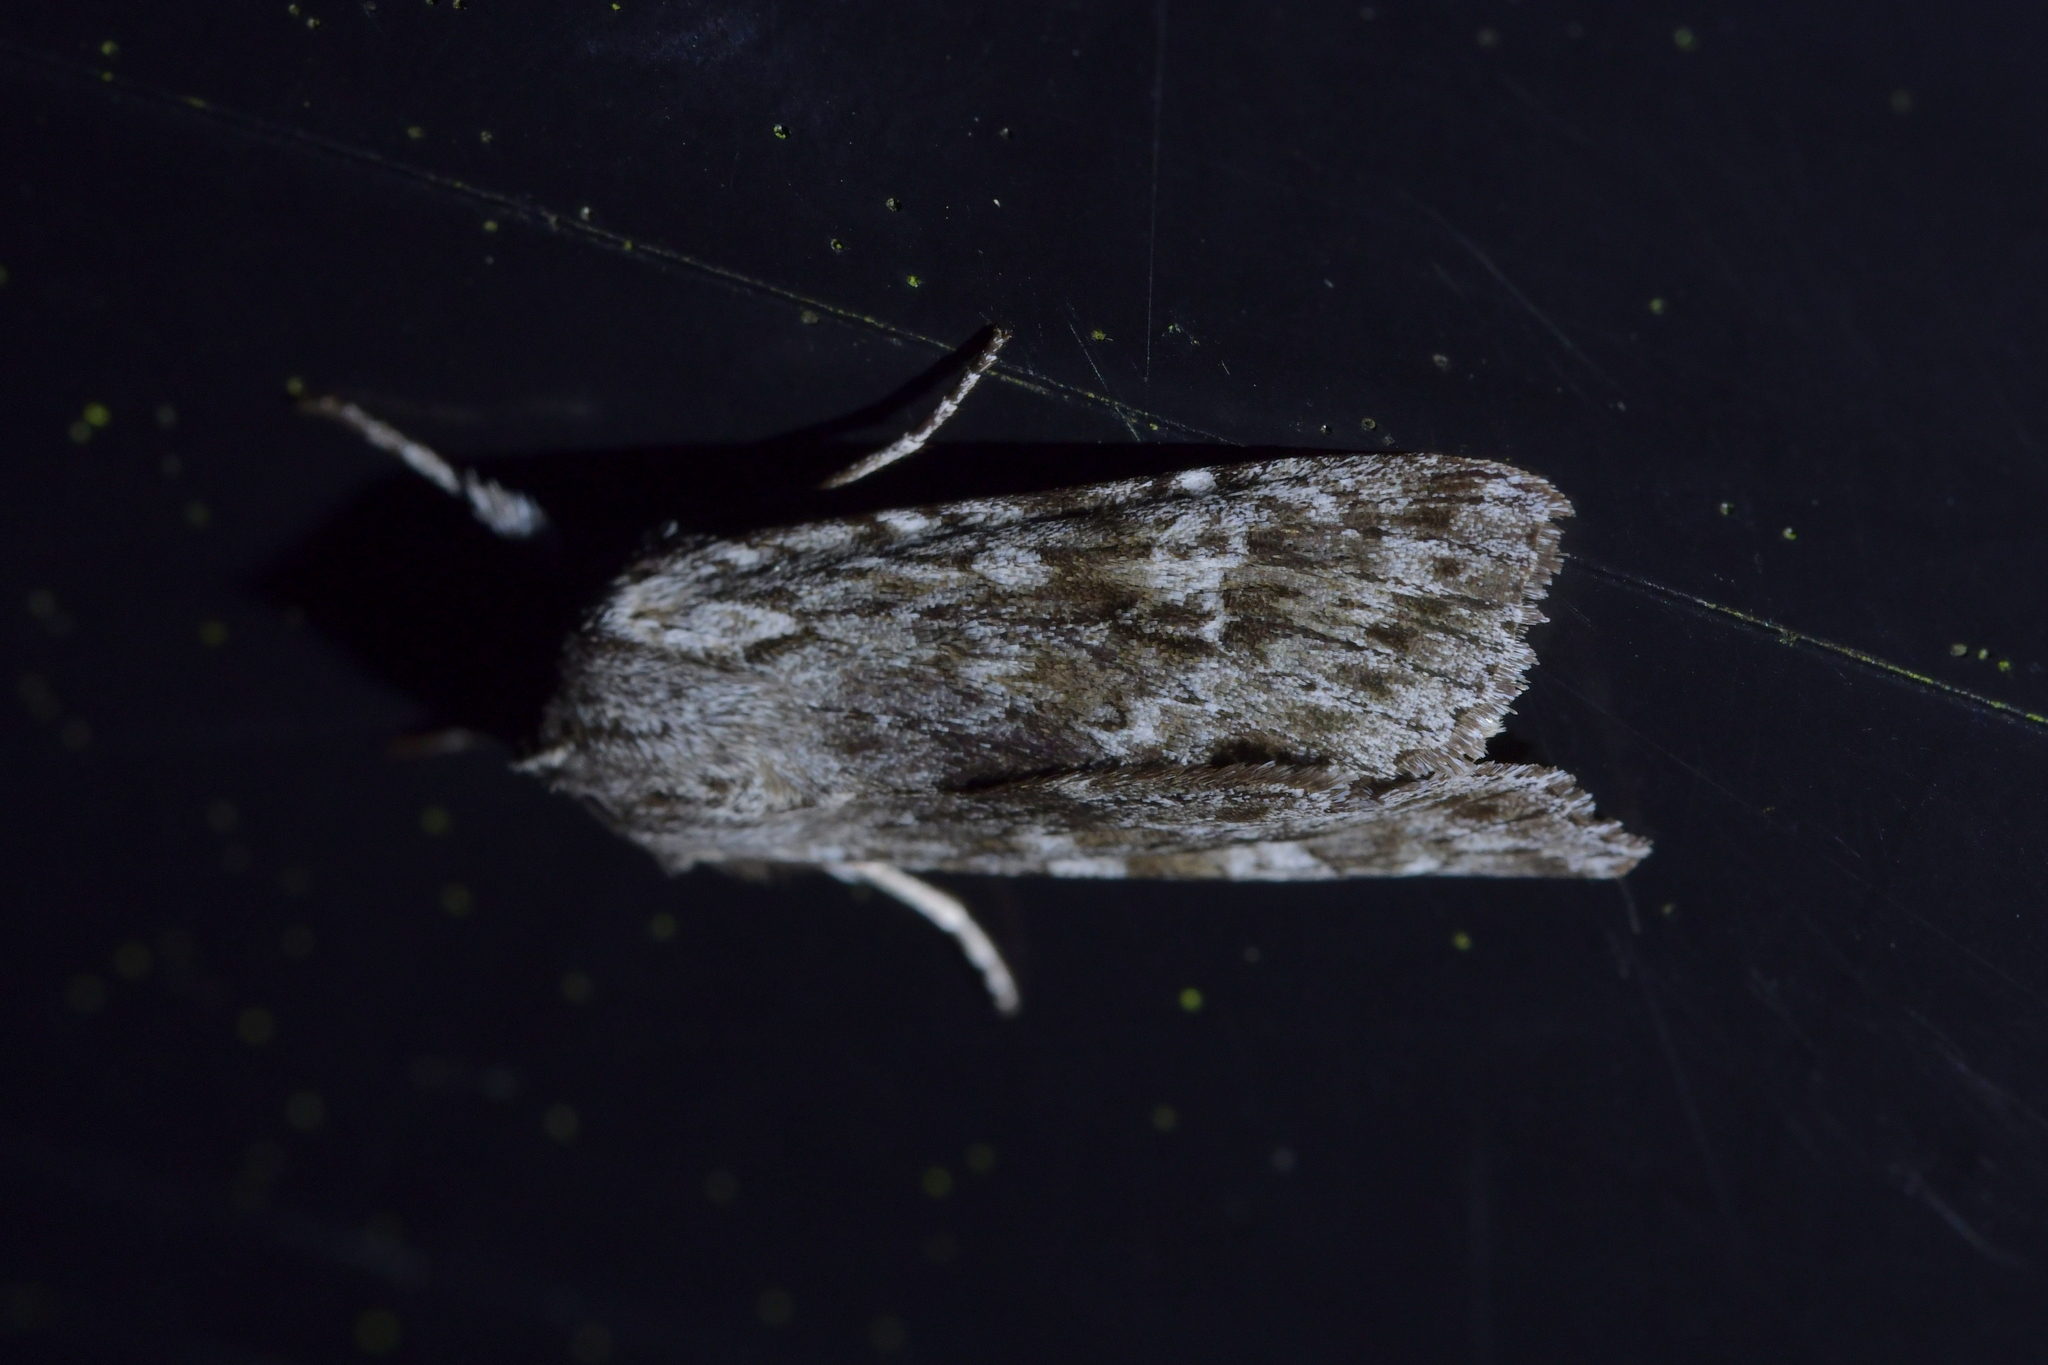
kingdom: Animalia
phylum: Arthropoda
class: Insecta
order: Lepidoptera
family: Noctuidae
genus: Physetica
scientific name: Physetica sequens
